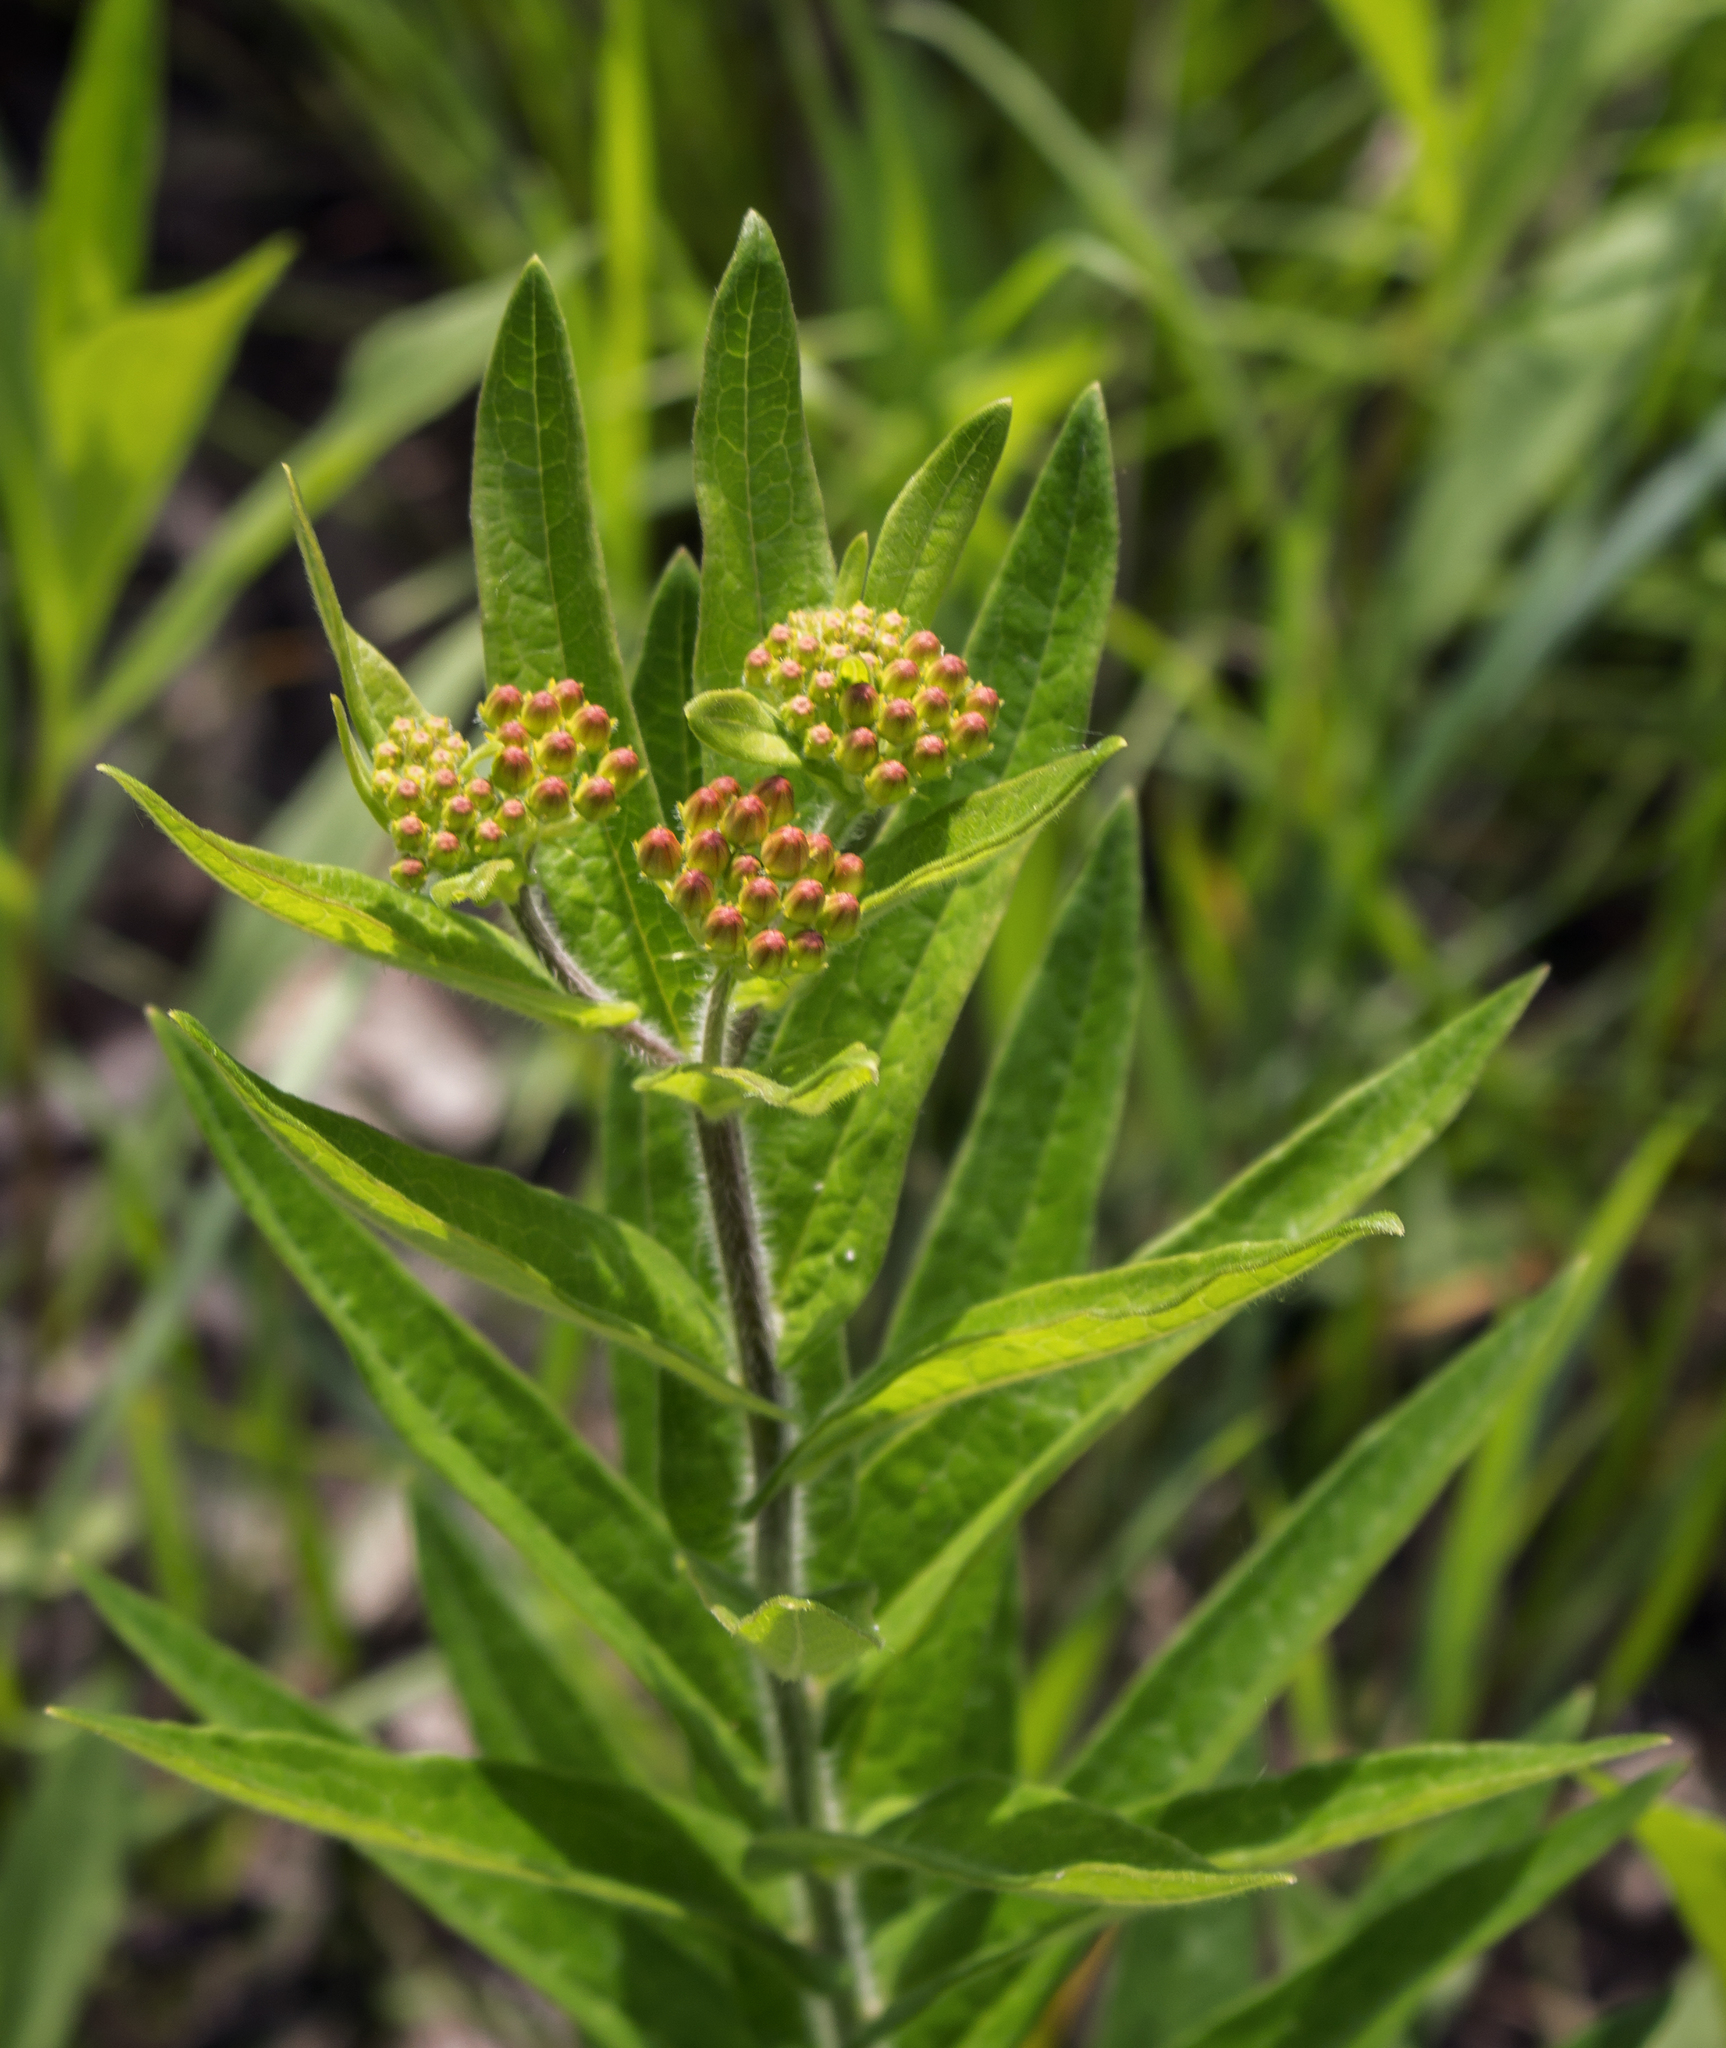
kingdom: Plantae
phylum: Tracheophyta
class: Magnoliopsida
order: Gentianales
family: Apocynaceae
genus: Asclepias
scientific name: Asclepias tuberosa
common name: Butterfly milkweed
